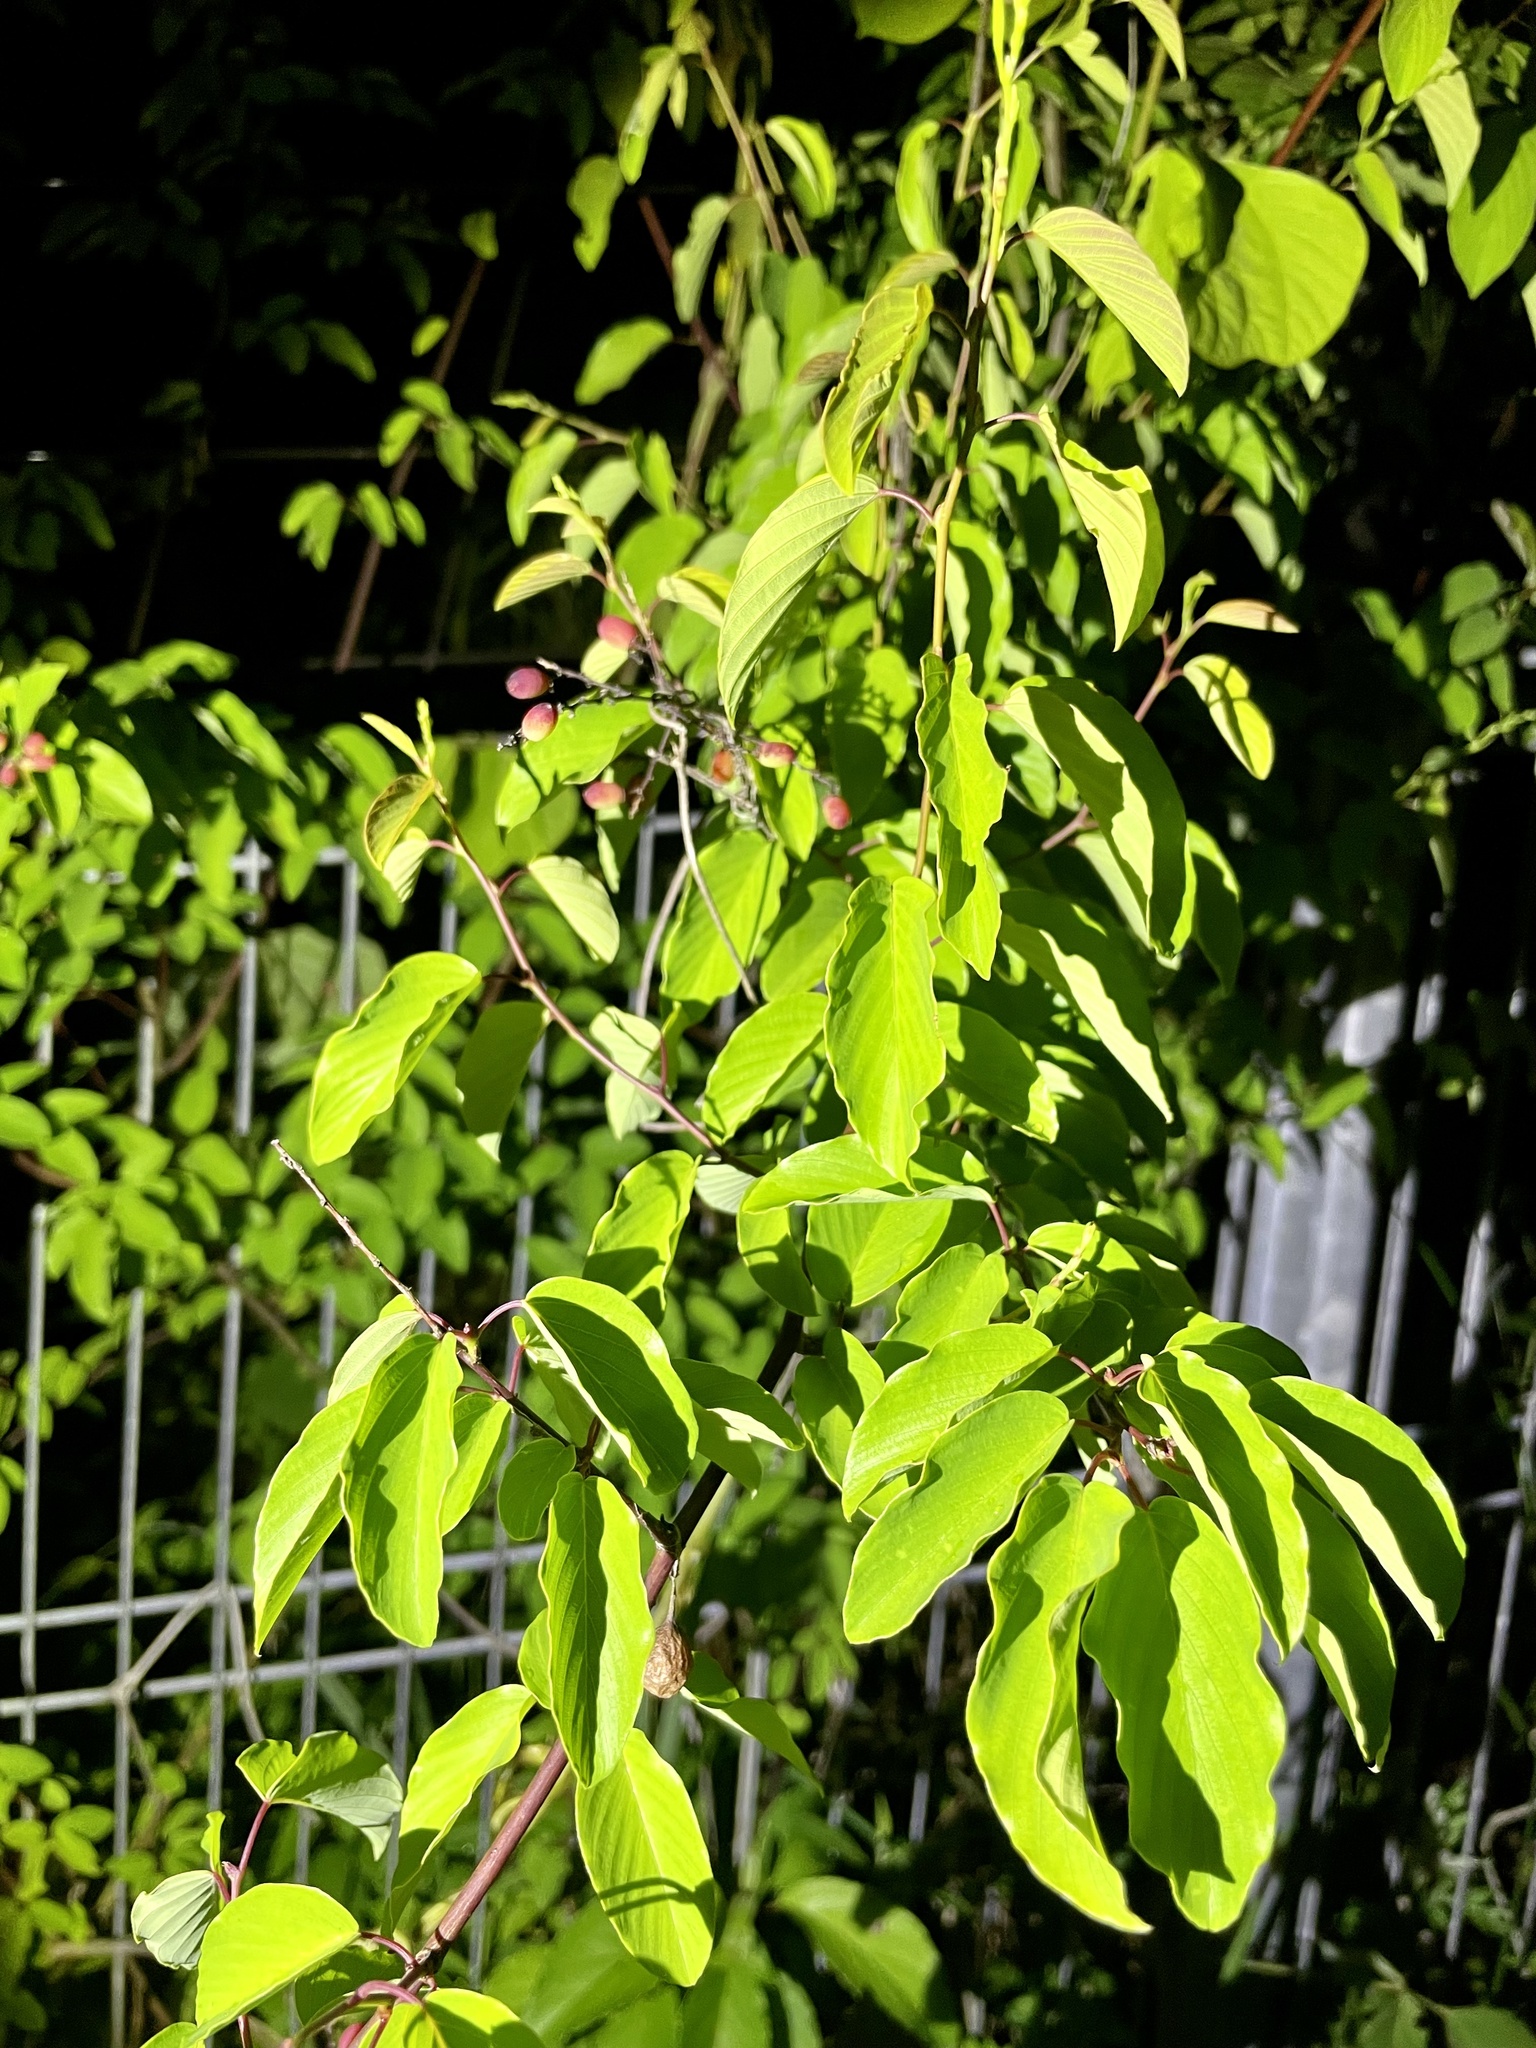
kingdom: Plantae
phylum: Tracheophyta
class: Magnoliopsida
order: Rosales
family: Rhamnaceae
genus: Berchemia
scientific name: Berchemia floribunda
